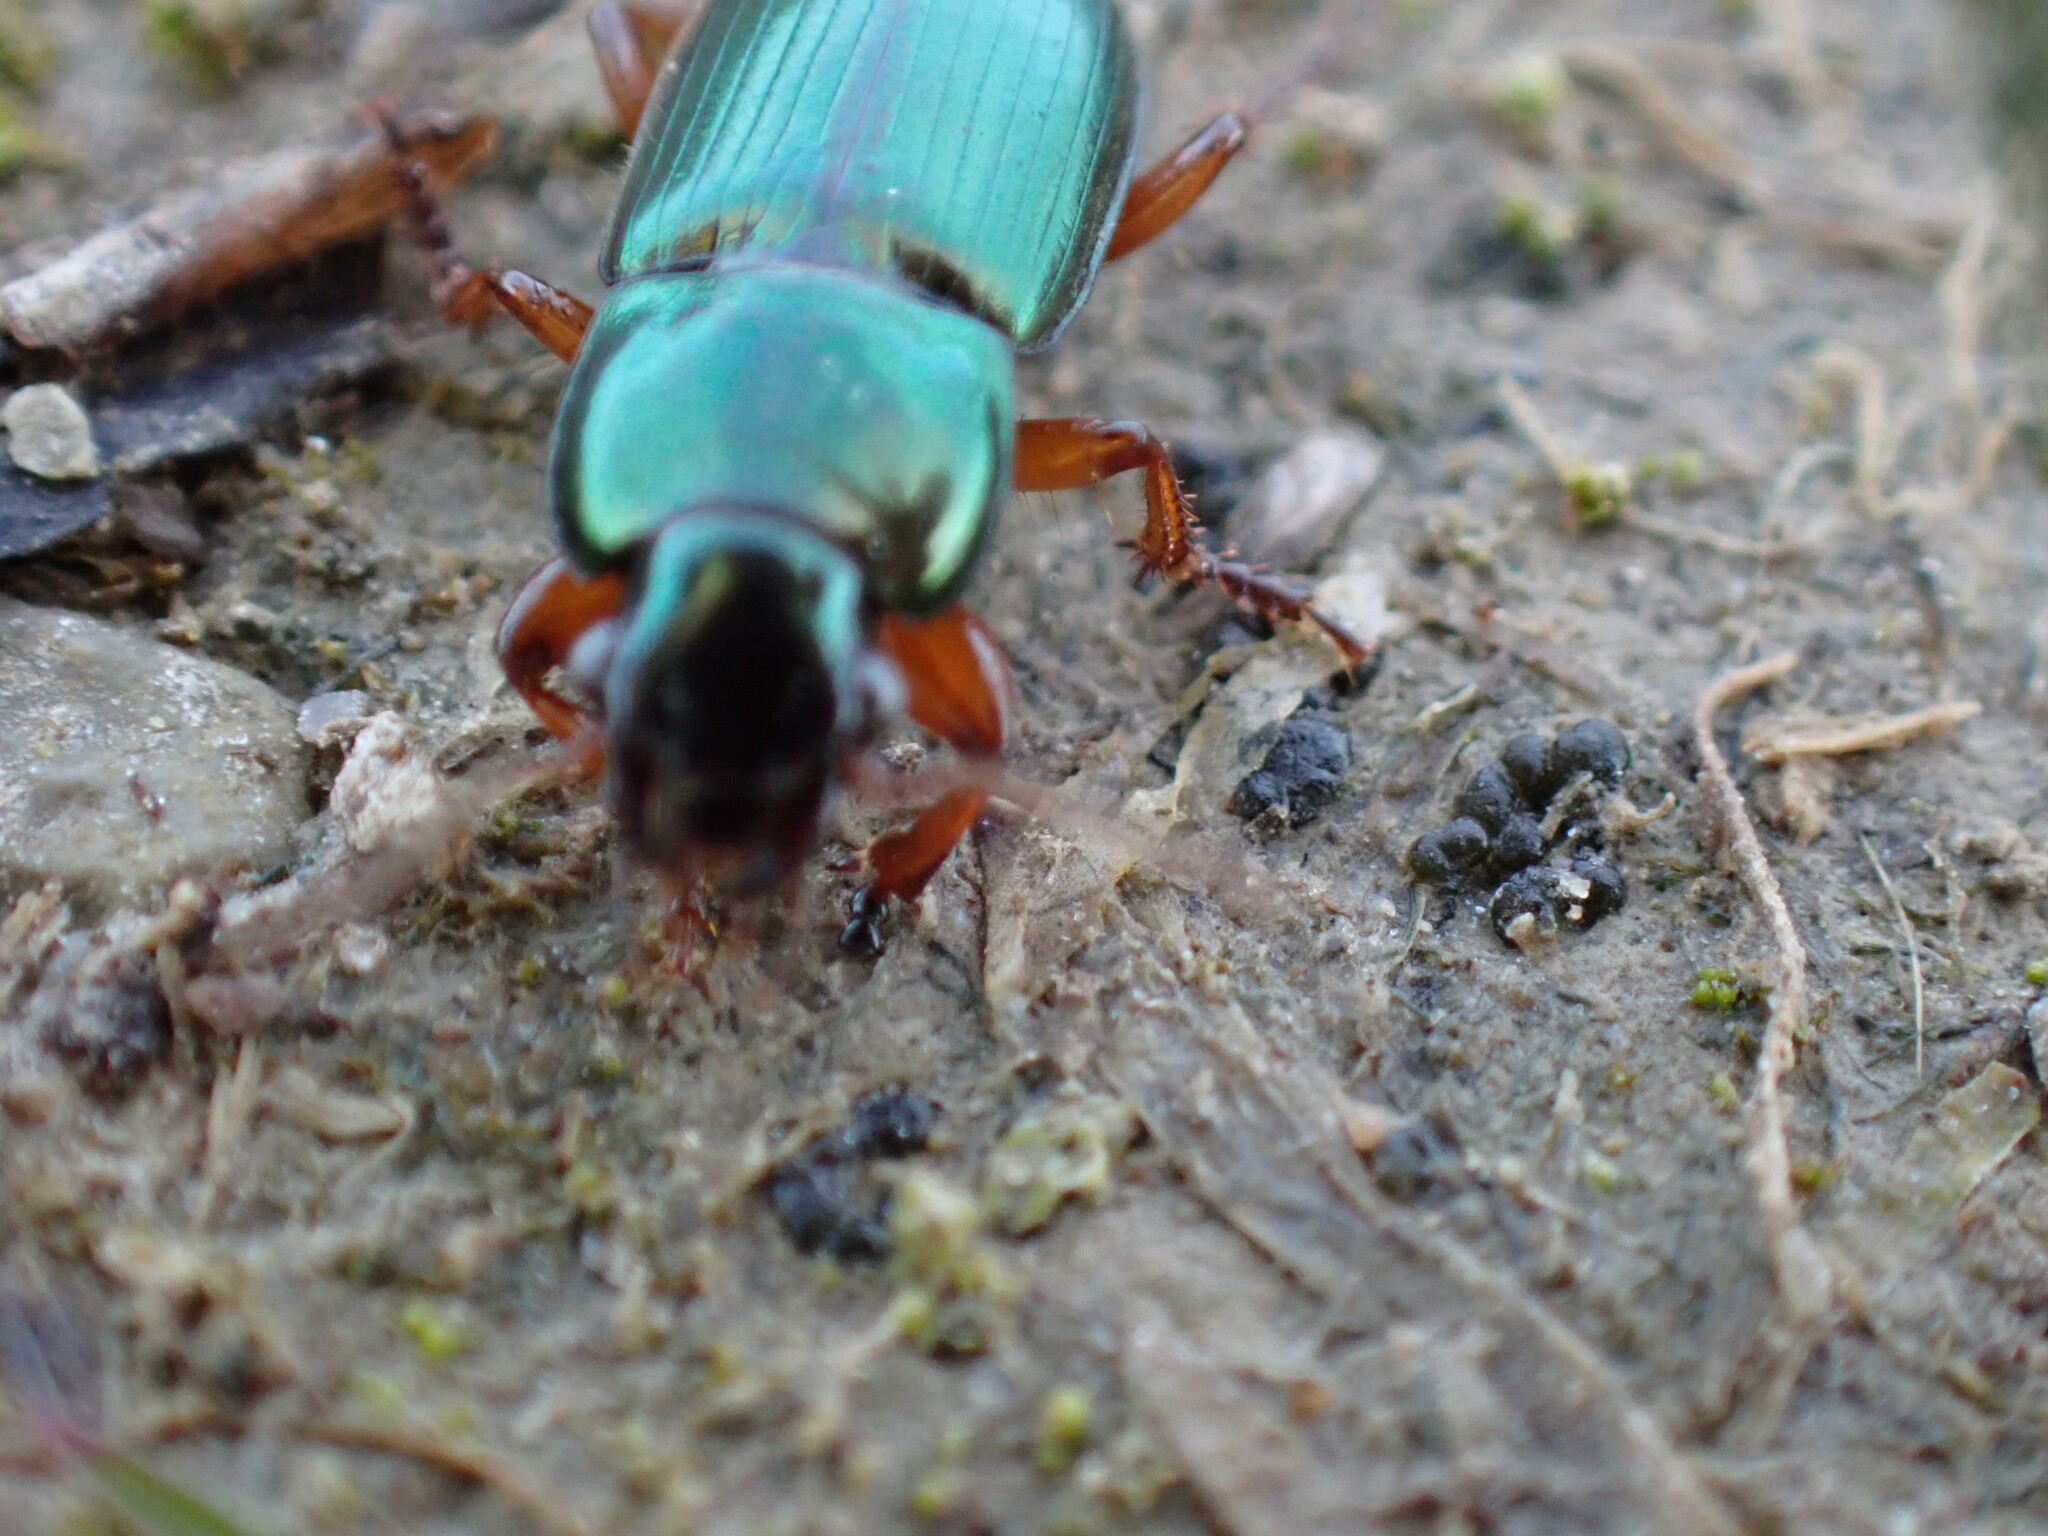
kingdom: Animalia
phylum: Arthropoda
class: Insecta
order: Coleoptera
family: Carabidae
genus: Harpalus
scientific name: Harpalus affinis
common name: Polychrome harp ground beetle
